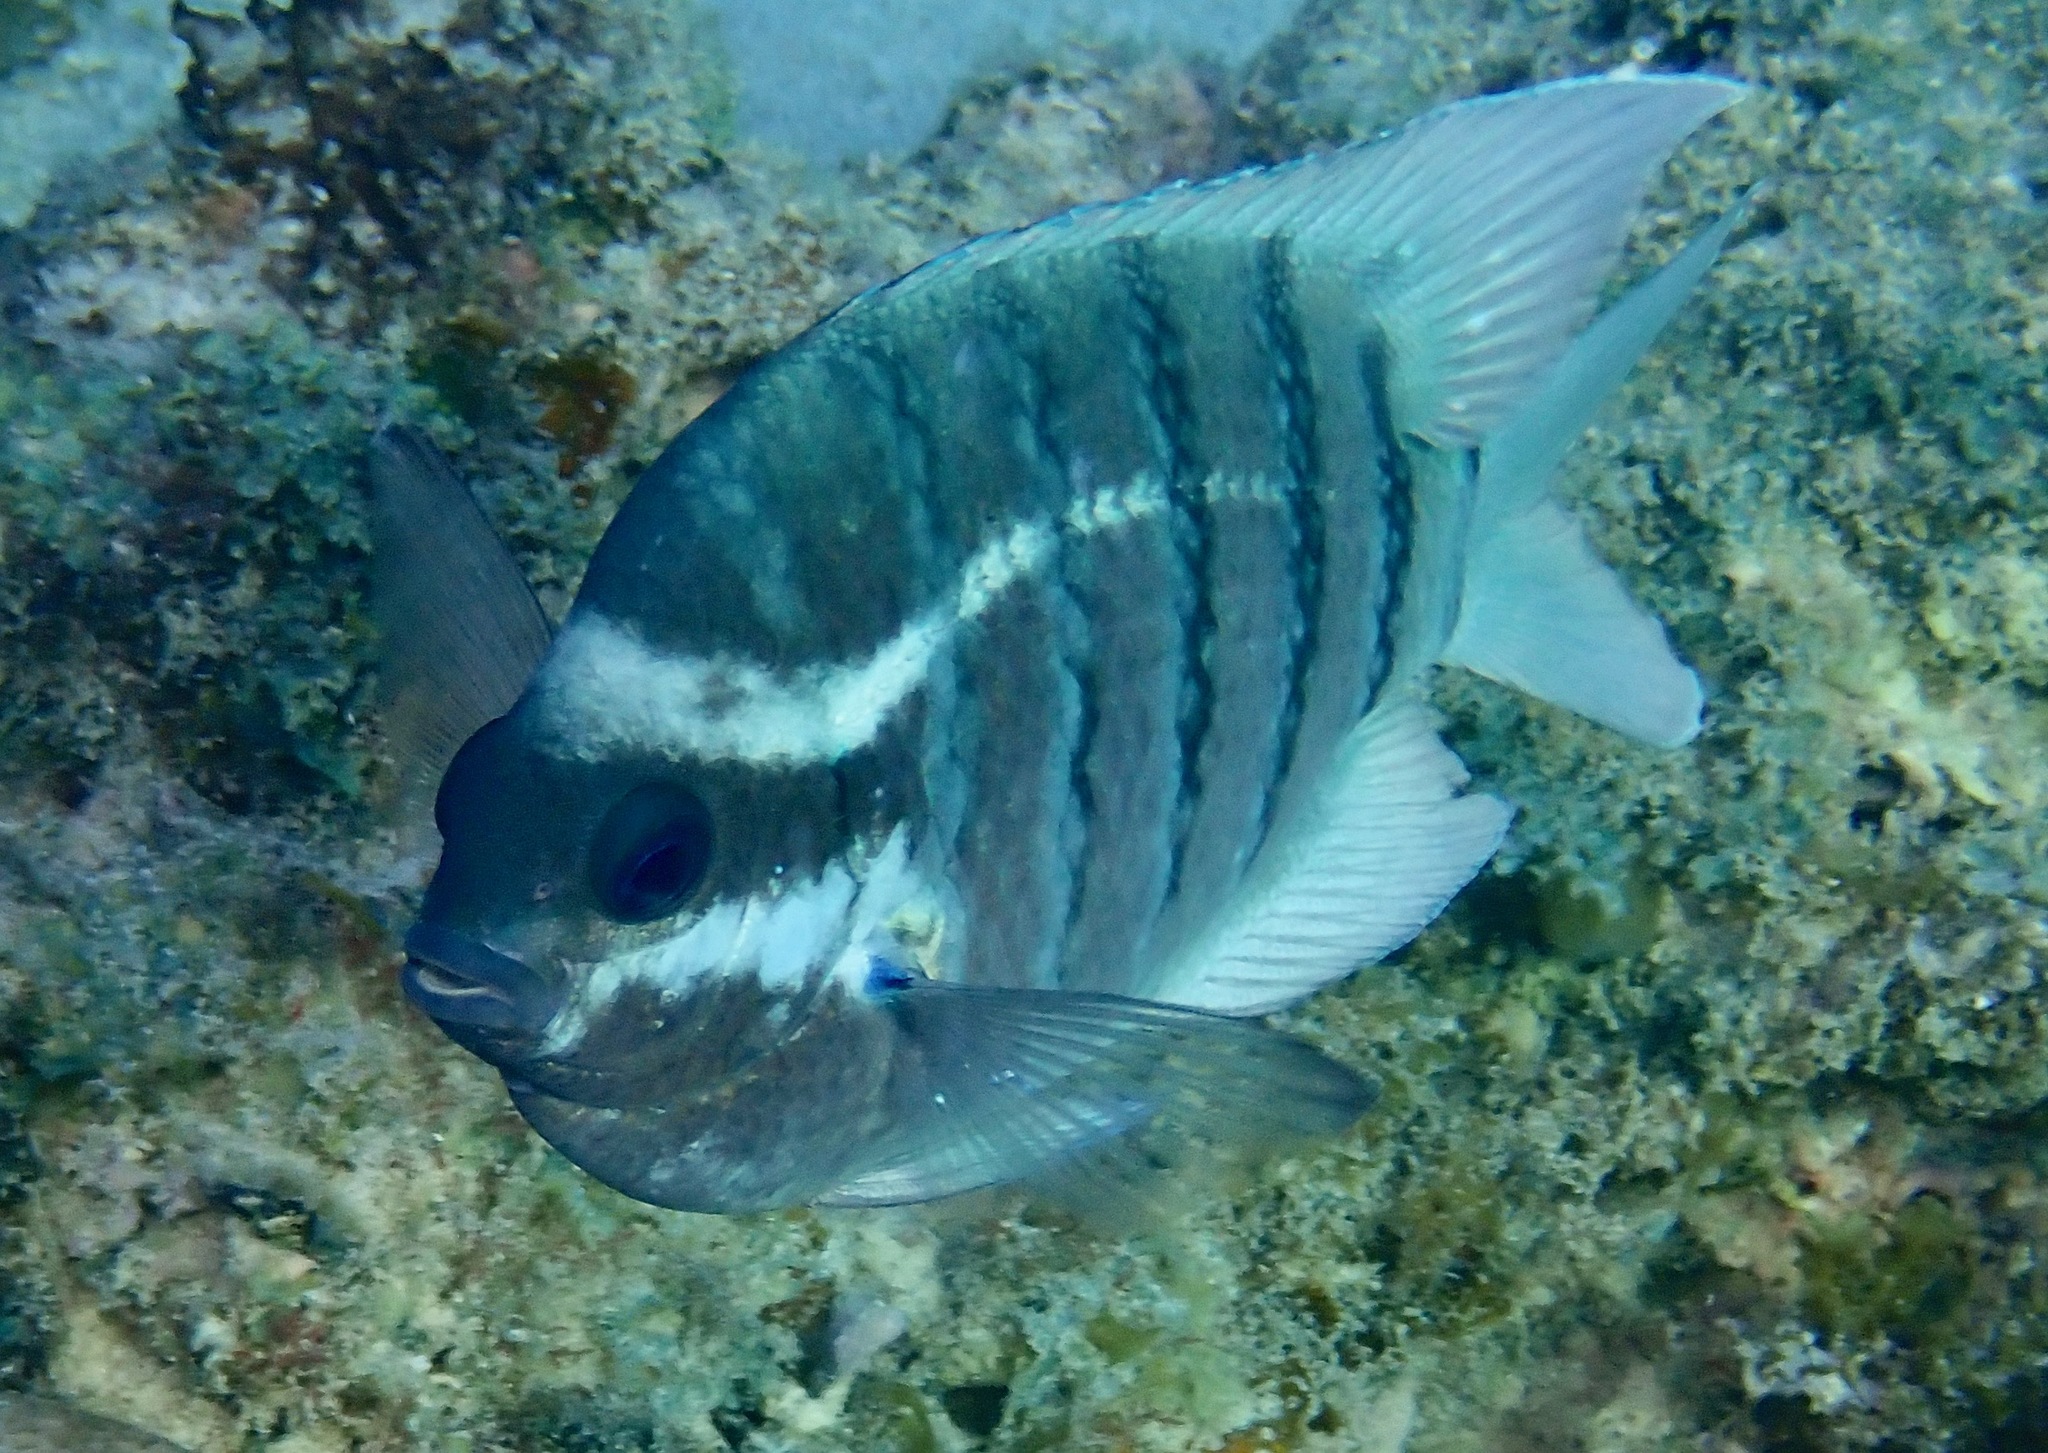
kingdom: Animalia
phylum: Chordata
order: Perciformes
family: Pomacentridae
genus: Abudefduf
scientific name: Abudefduf bengalensis
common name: Bengal sergeant
